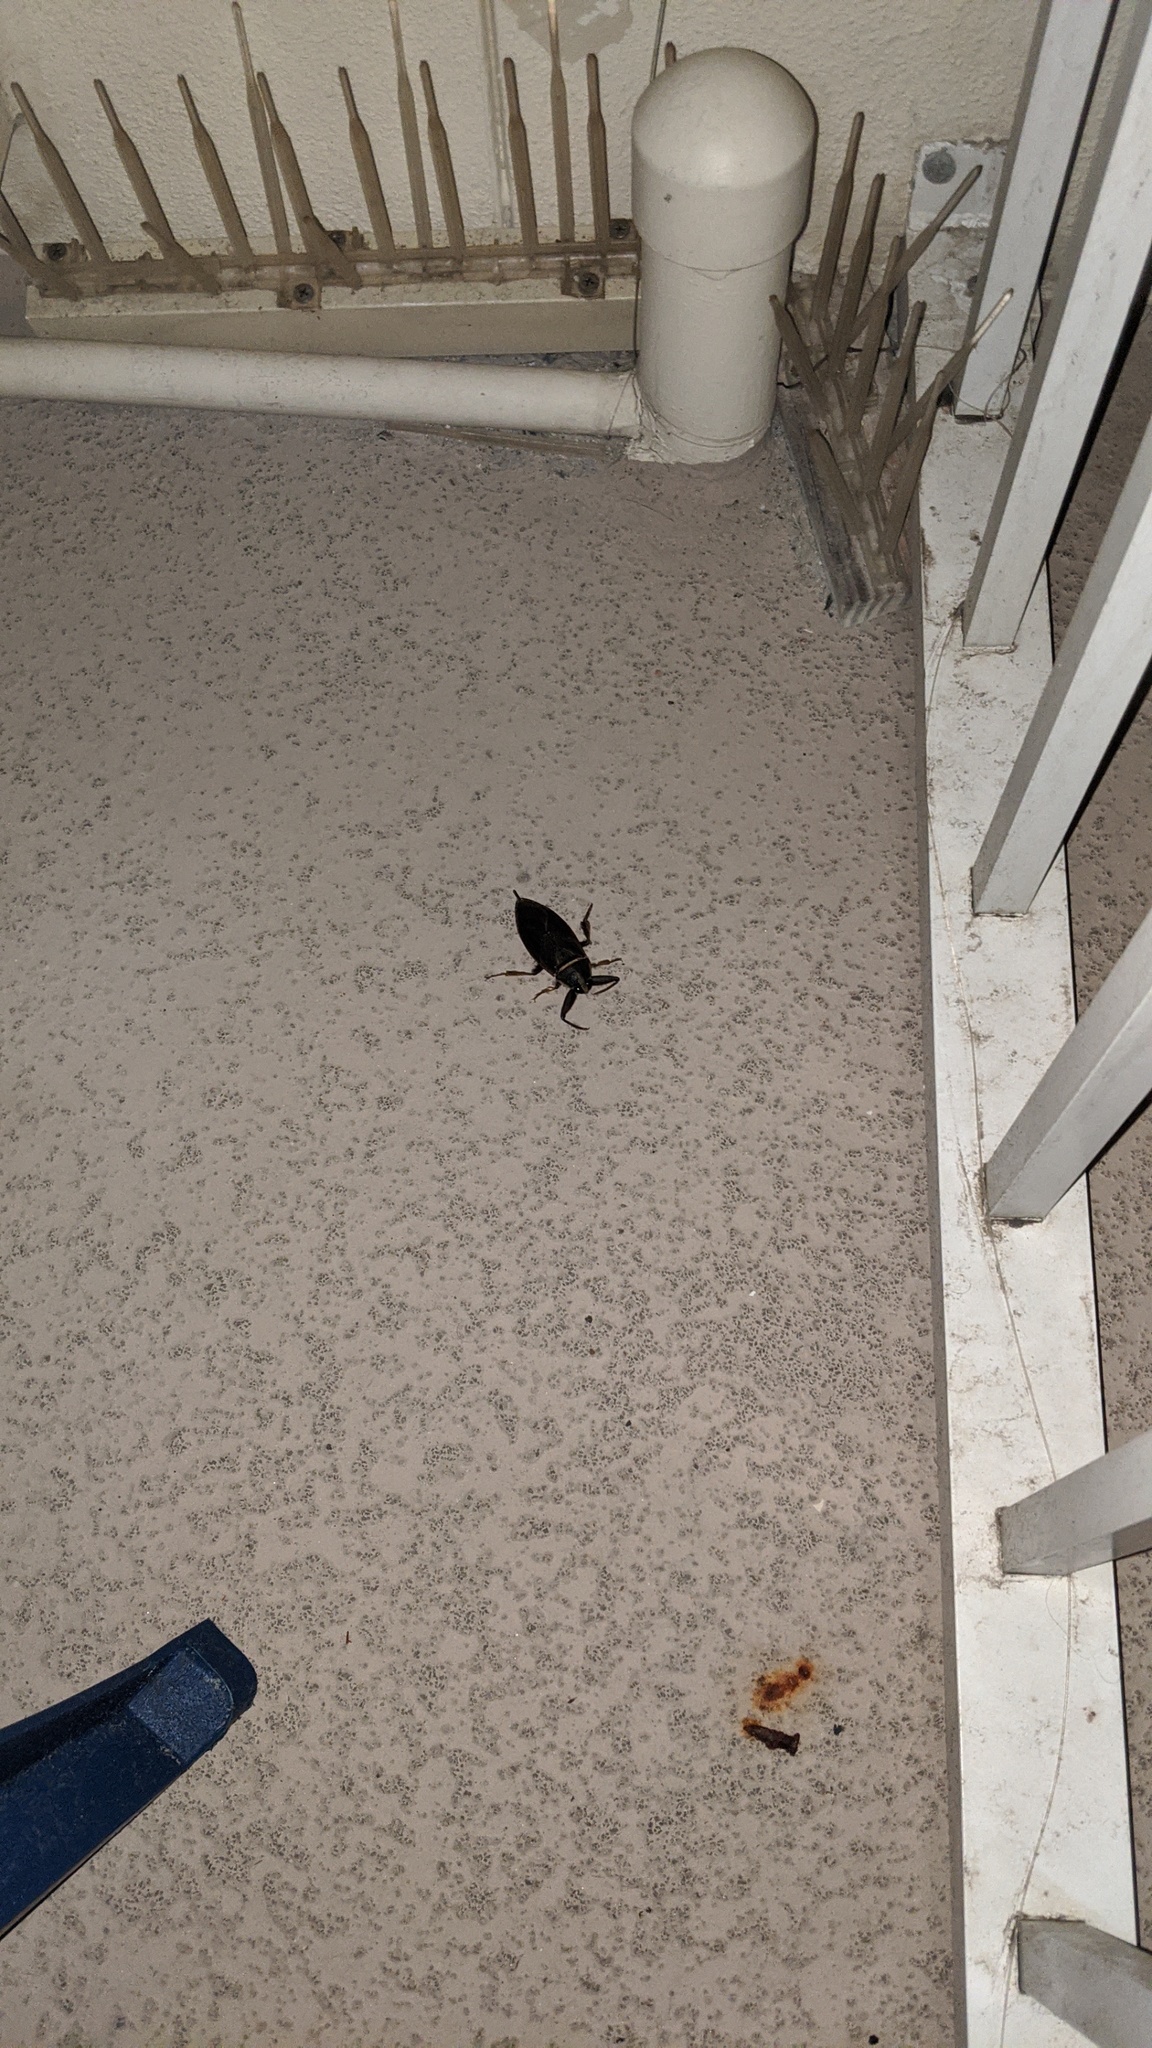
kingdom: Animalia
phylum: Arthropoda
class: Insecta
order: Hemiptera
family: Belostomatidae
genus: Benacus
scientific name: Benacus griseus
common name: Eastern toe-biter
